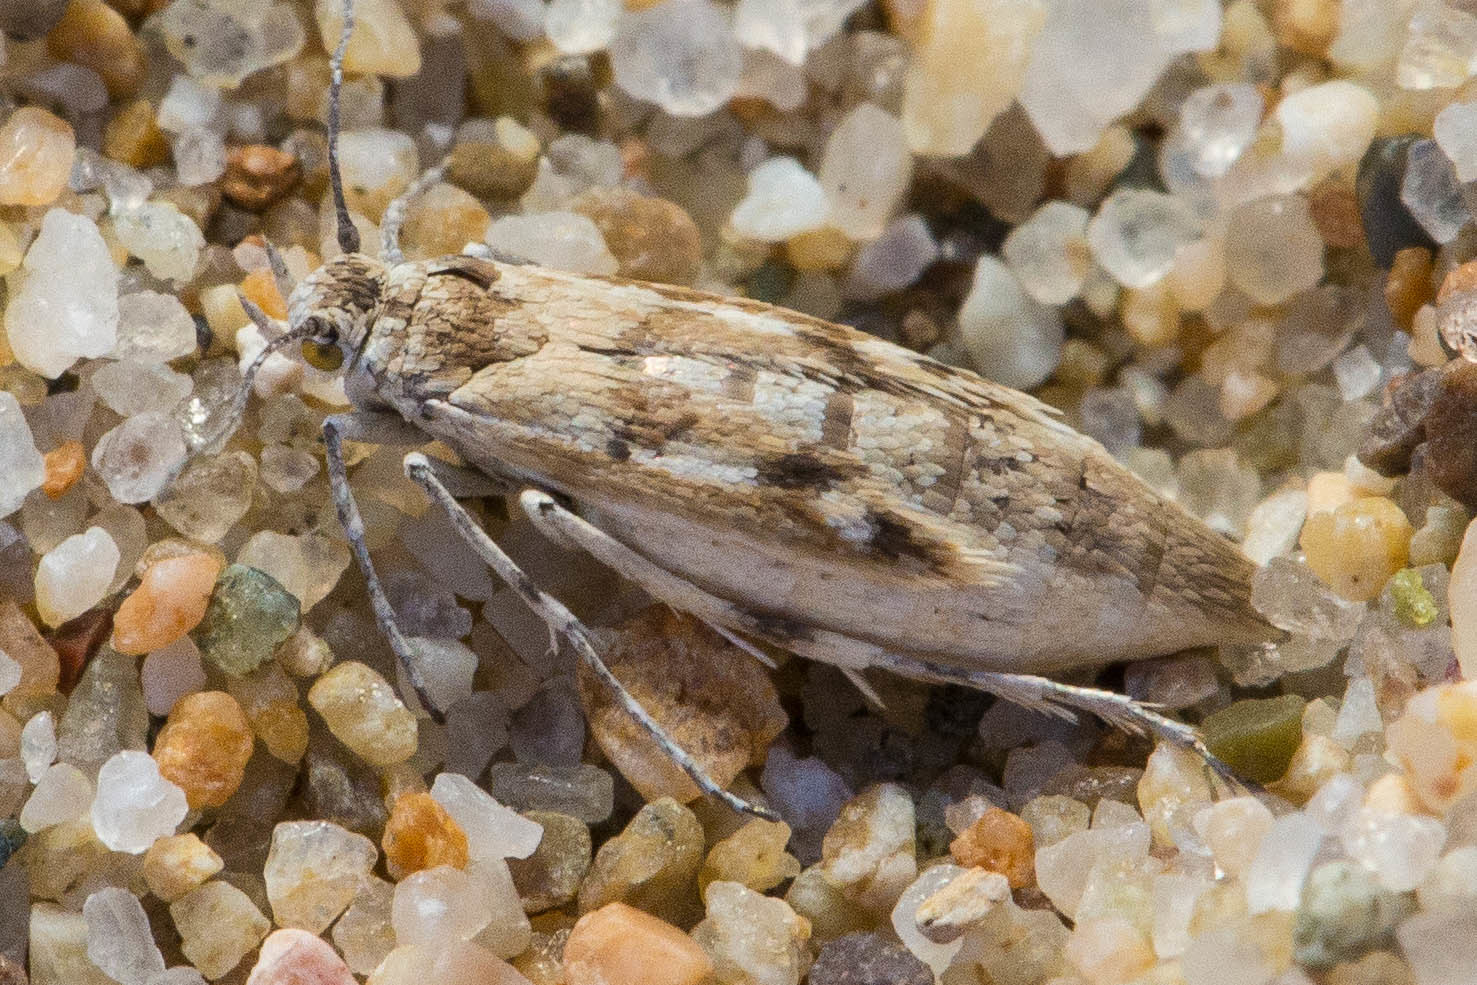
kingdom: Animalia
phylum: Arthropoda
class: Insecta
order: Lepidoptera
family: Scythrididae
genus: Areniscythris
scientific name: Areniscythris brachypteris
